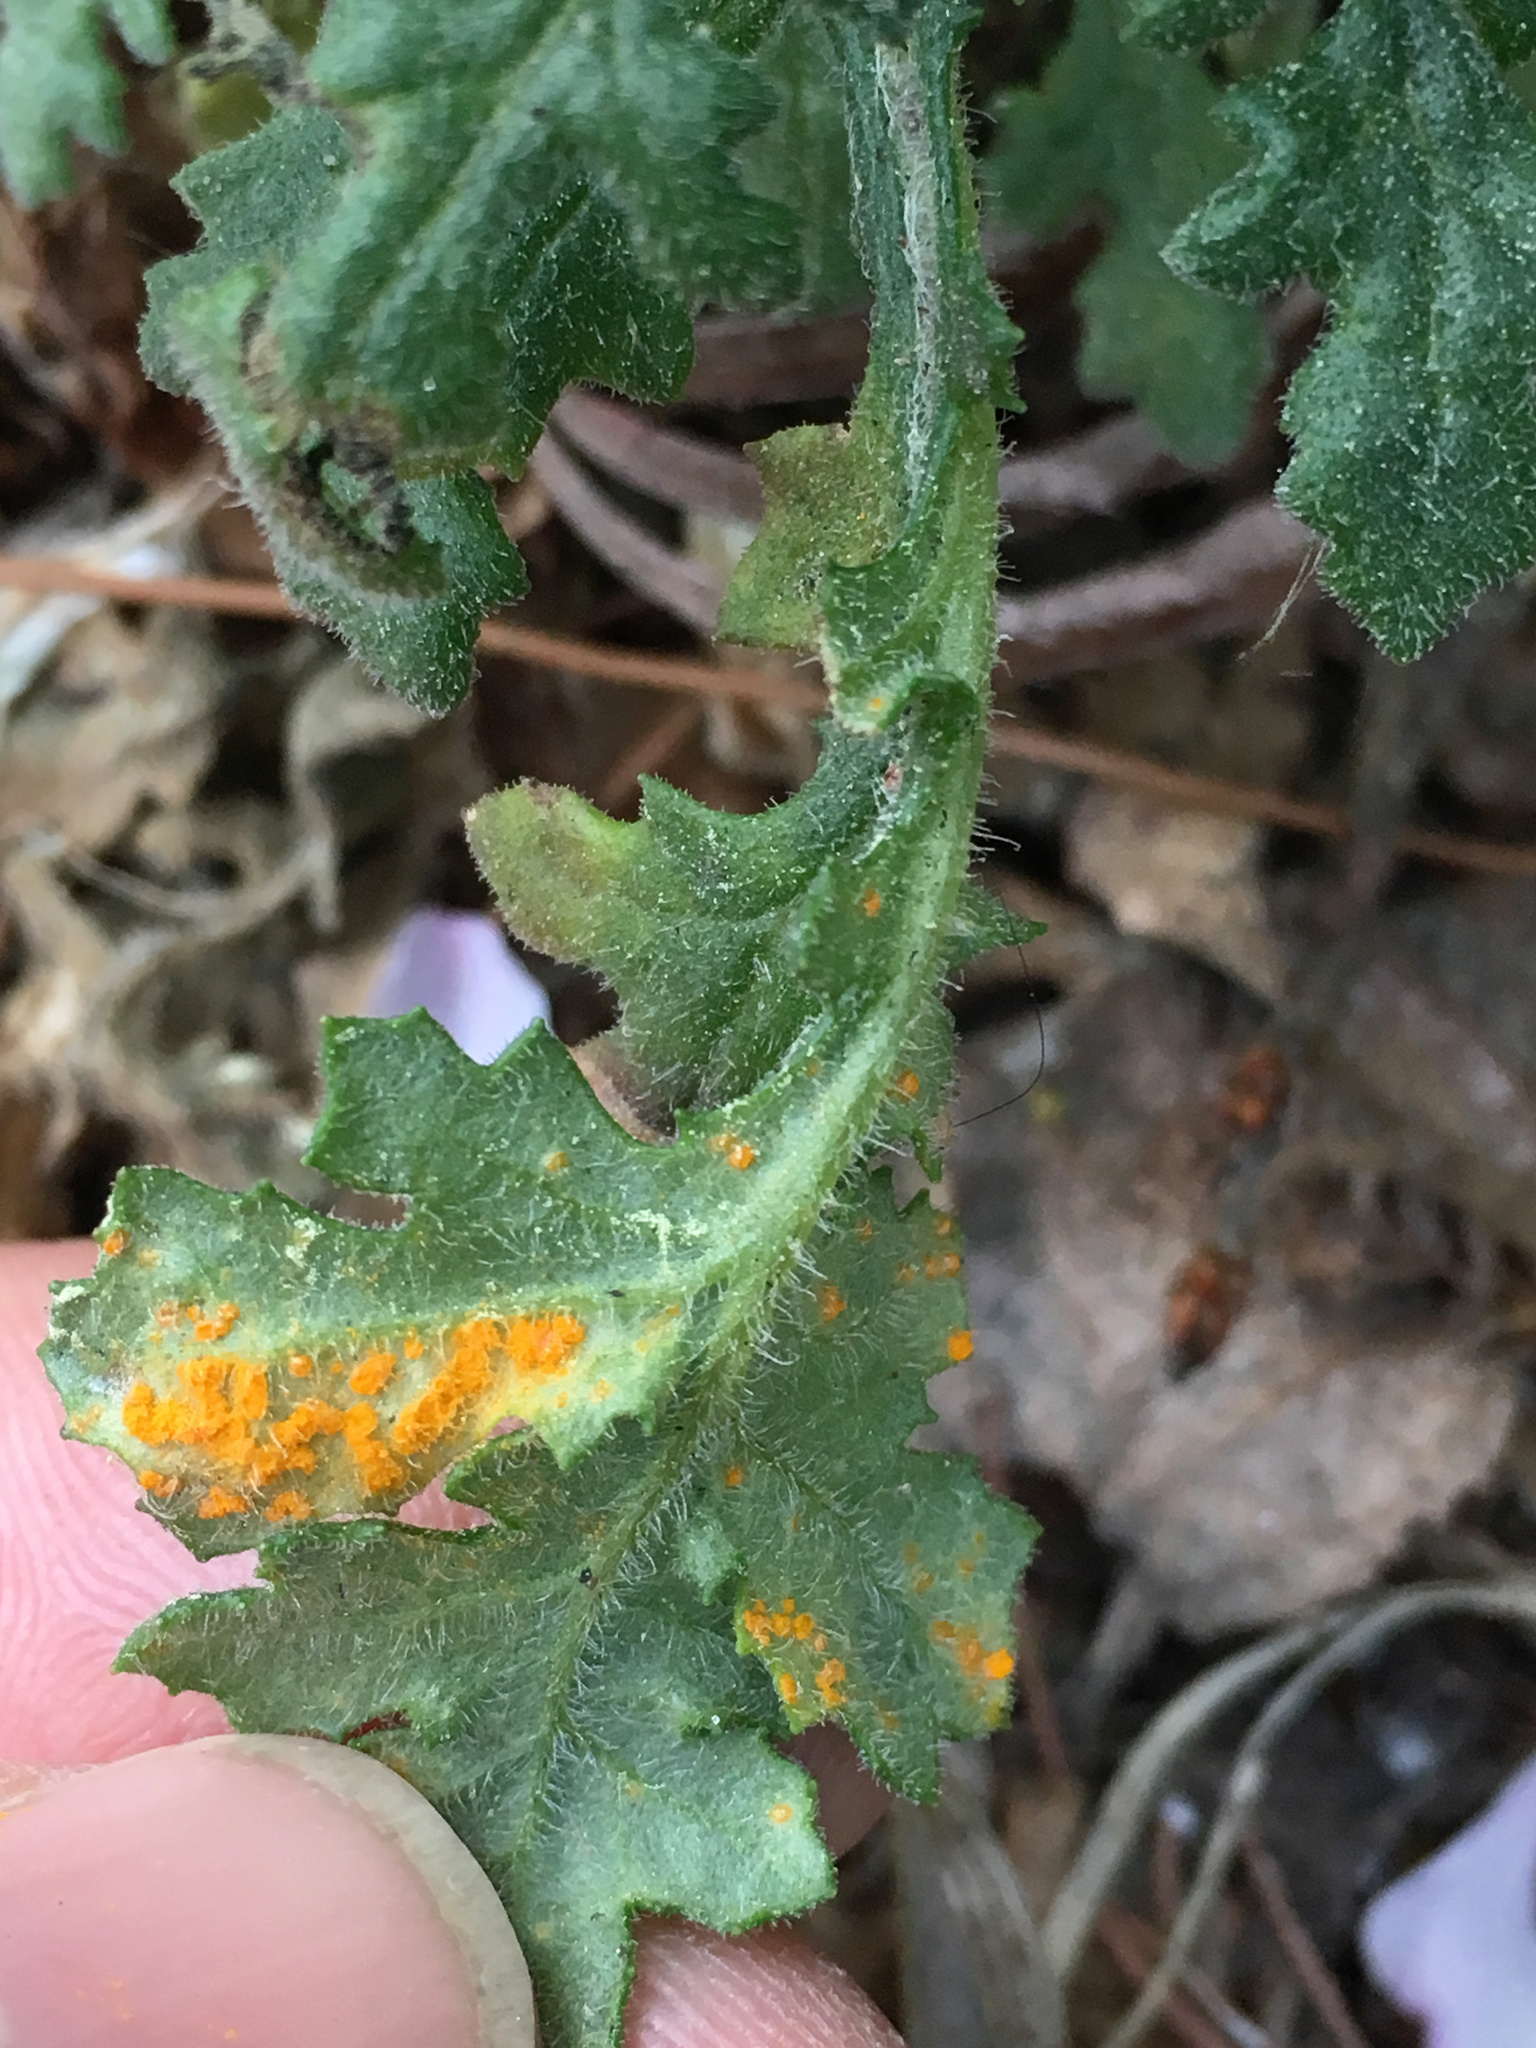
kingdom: Fungi
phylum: Basidiomycota
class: Pucciniomycetes
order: Pucciniales
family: Coleosporiaceae
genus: Coleosporium
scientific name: Coleosporium tussilaginis
